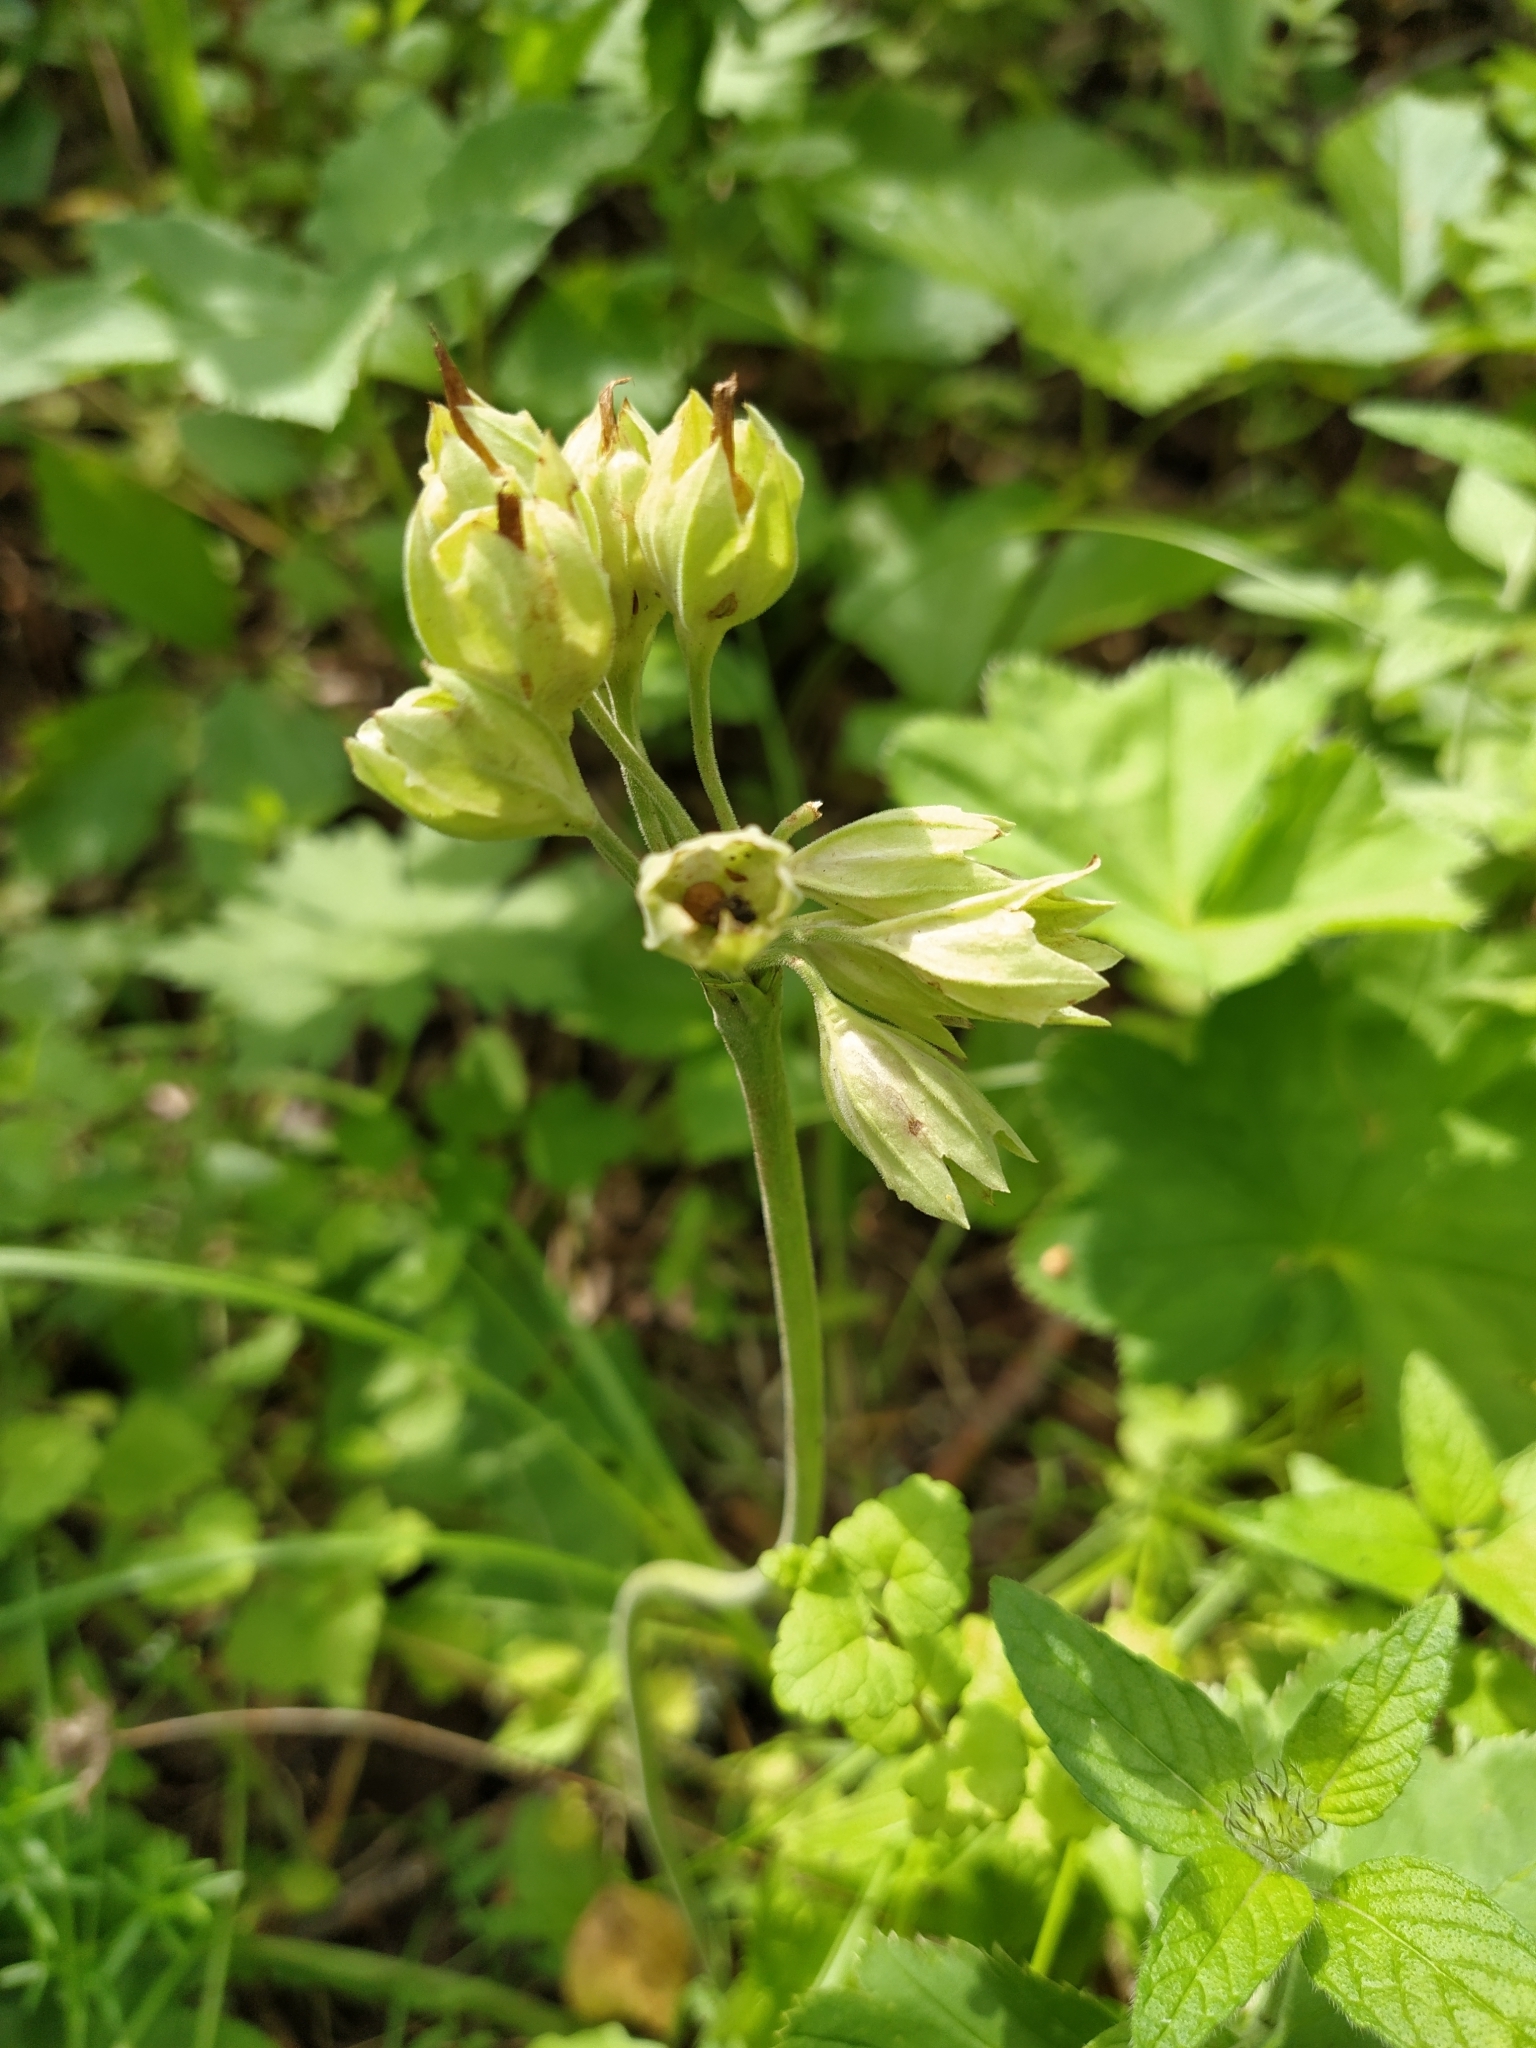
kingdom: Plantae
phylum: Tracheophyta
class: Magnoliopsida
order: Ericales
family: Primulaceae
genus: Primula
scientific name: Primula veris
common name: Cowslip
